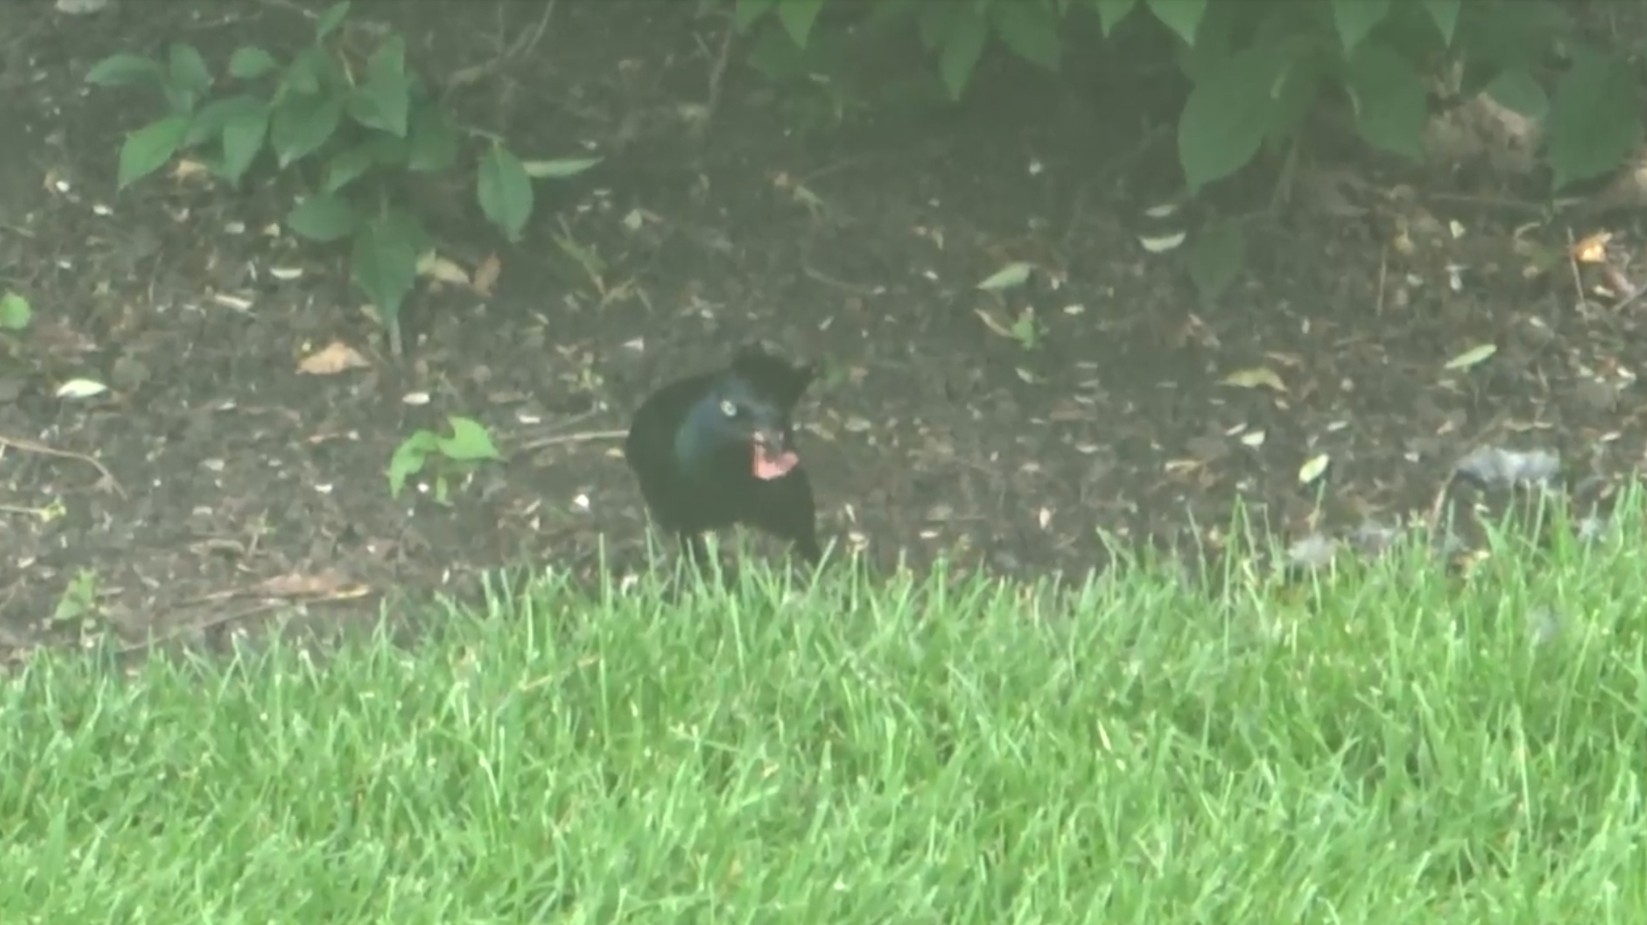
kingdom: Animalia
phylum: Chordata
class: Aves
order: Passeriformes
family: Icteridae
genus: Quiscalus
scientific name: Quiscalus quiscula
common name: Common grackle
